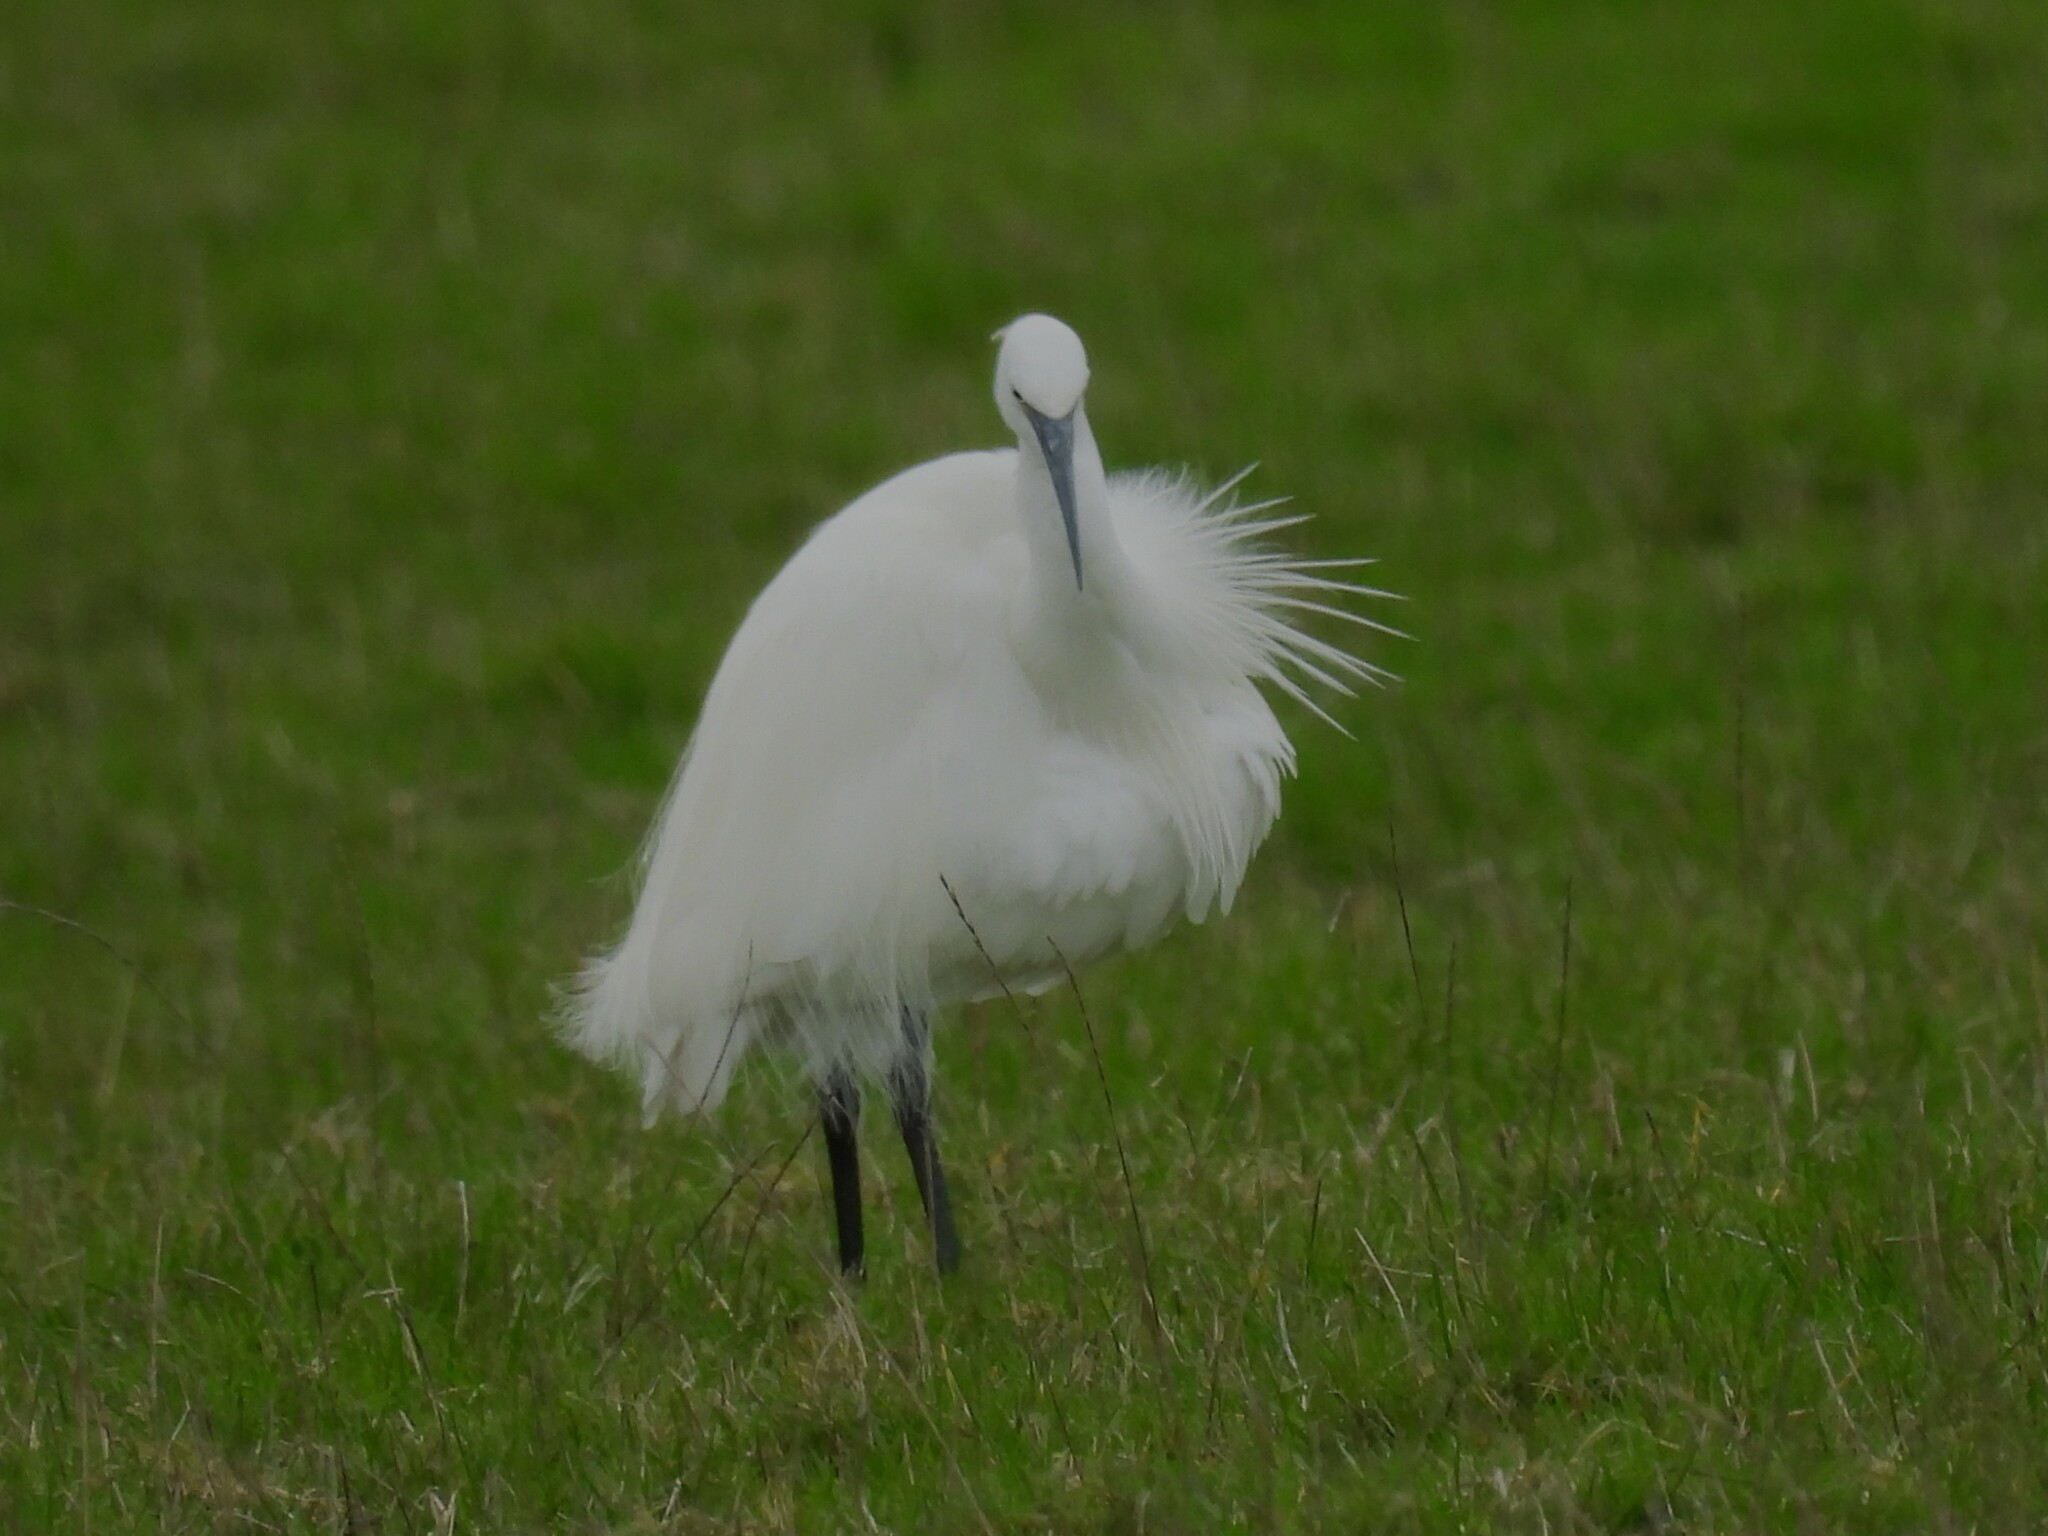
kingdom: Animalia
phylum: Chordata
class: Aves
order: Pelecaniformes
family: Ardeidae
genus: Egretta
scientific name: Egretta garzetta
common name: Little egret
